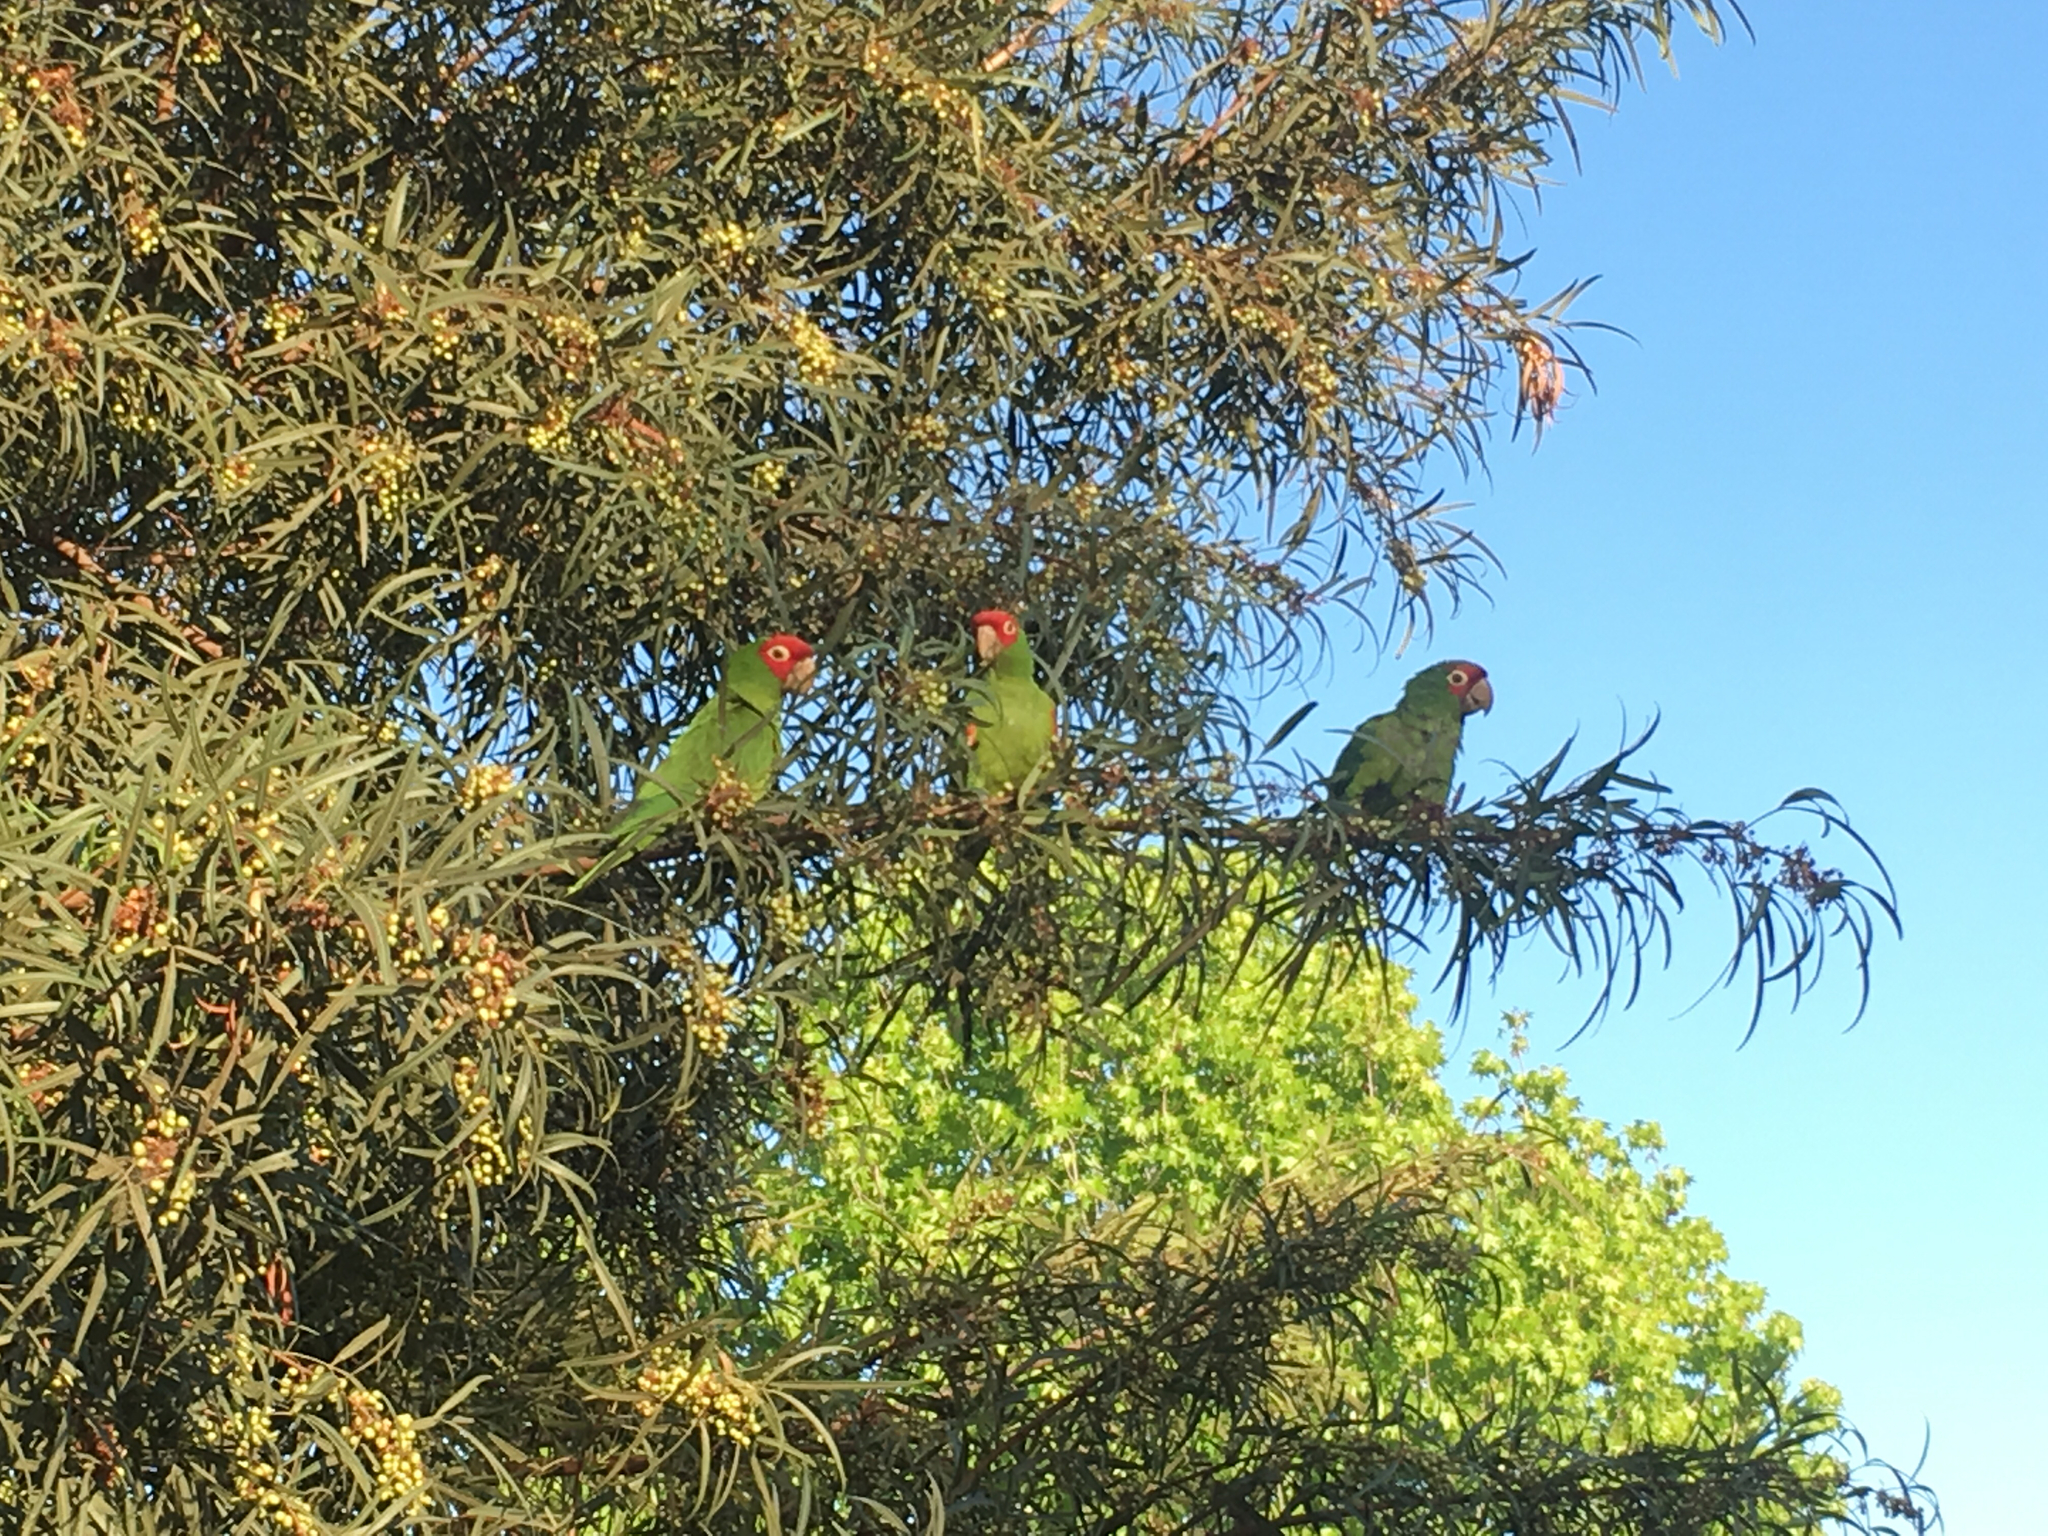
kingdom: Animalia
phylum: Chordata
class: Aves
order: Psittaciformes
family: Psittacidae
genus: Aratinga
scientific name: Aratinga erythrogenys
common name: Red-masked parakeet
